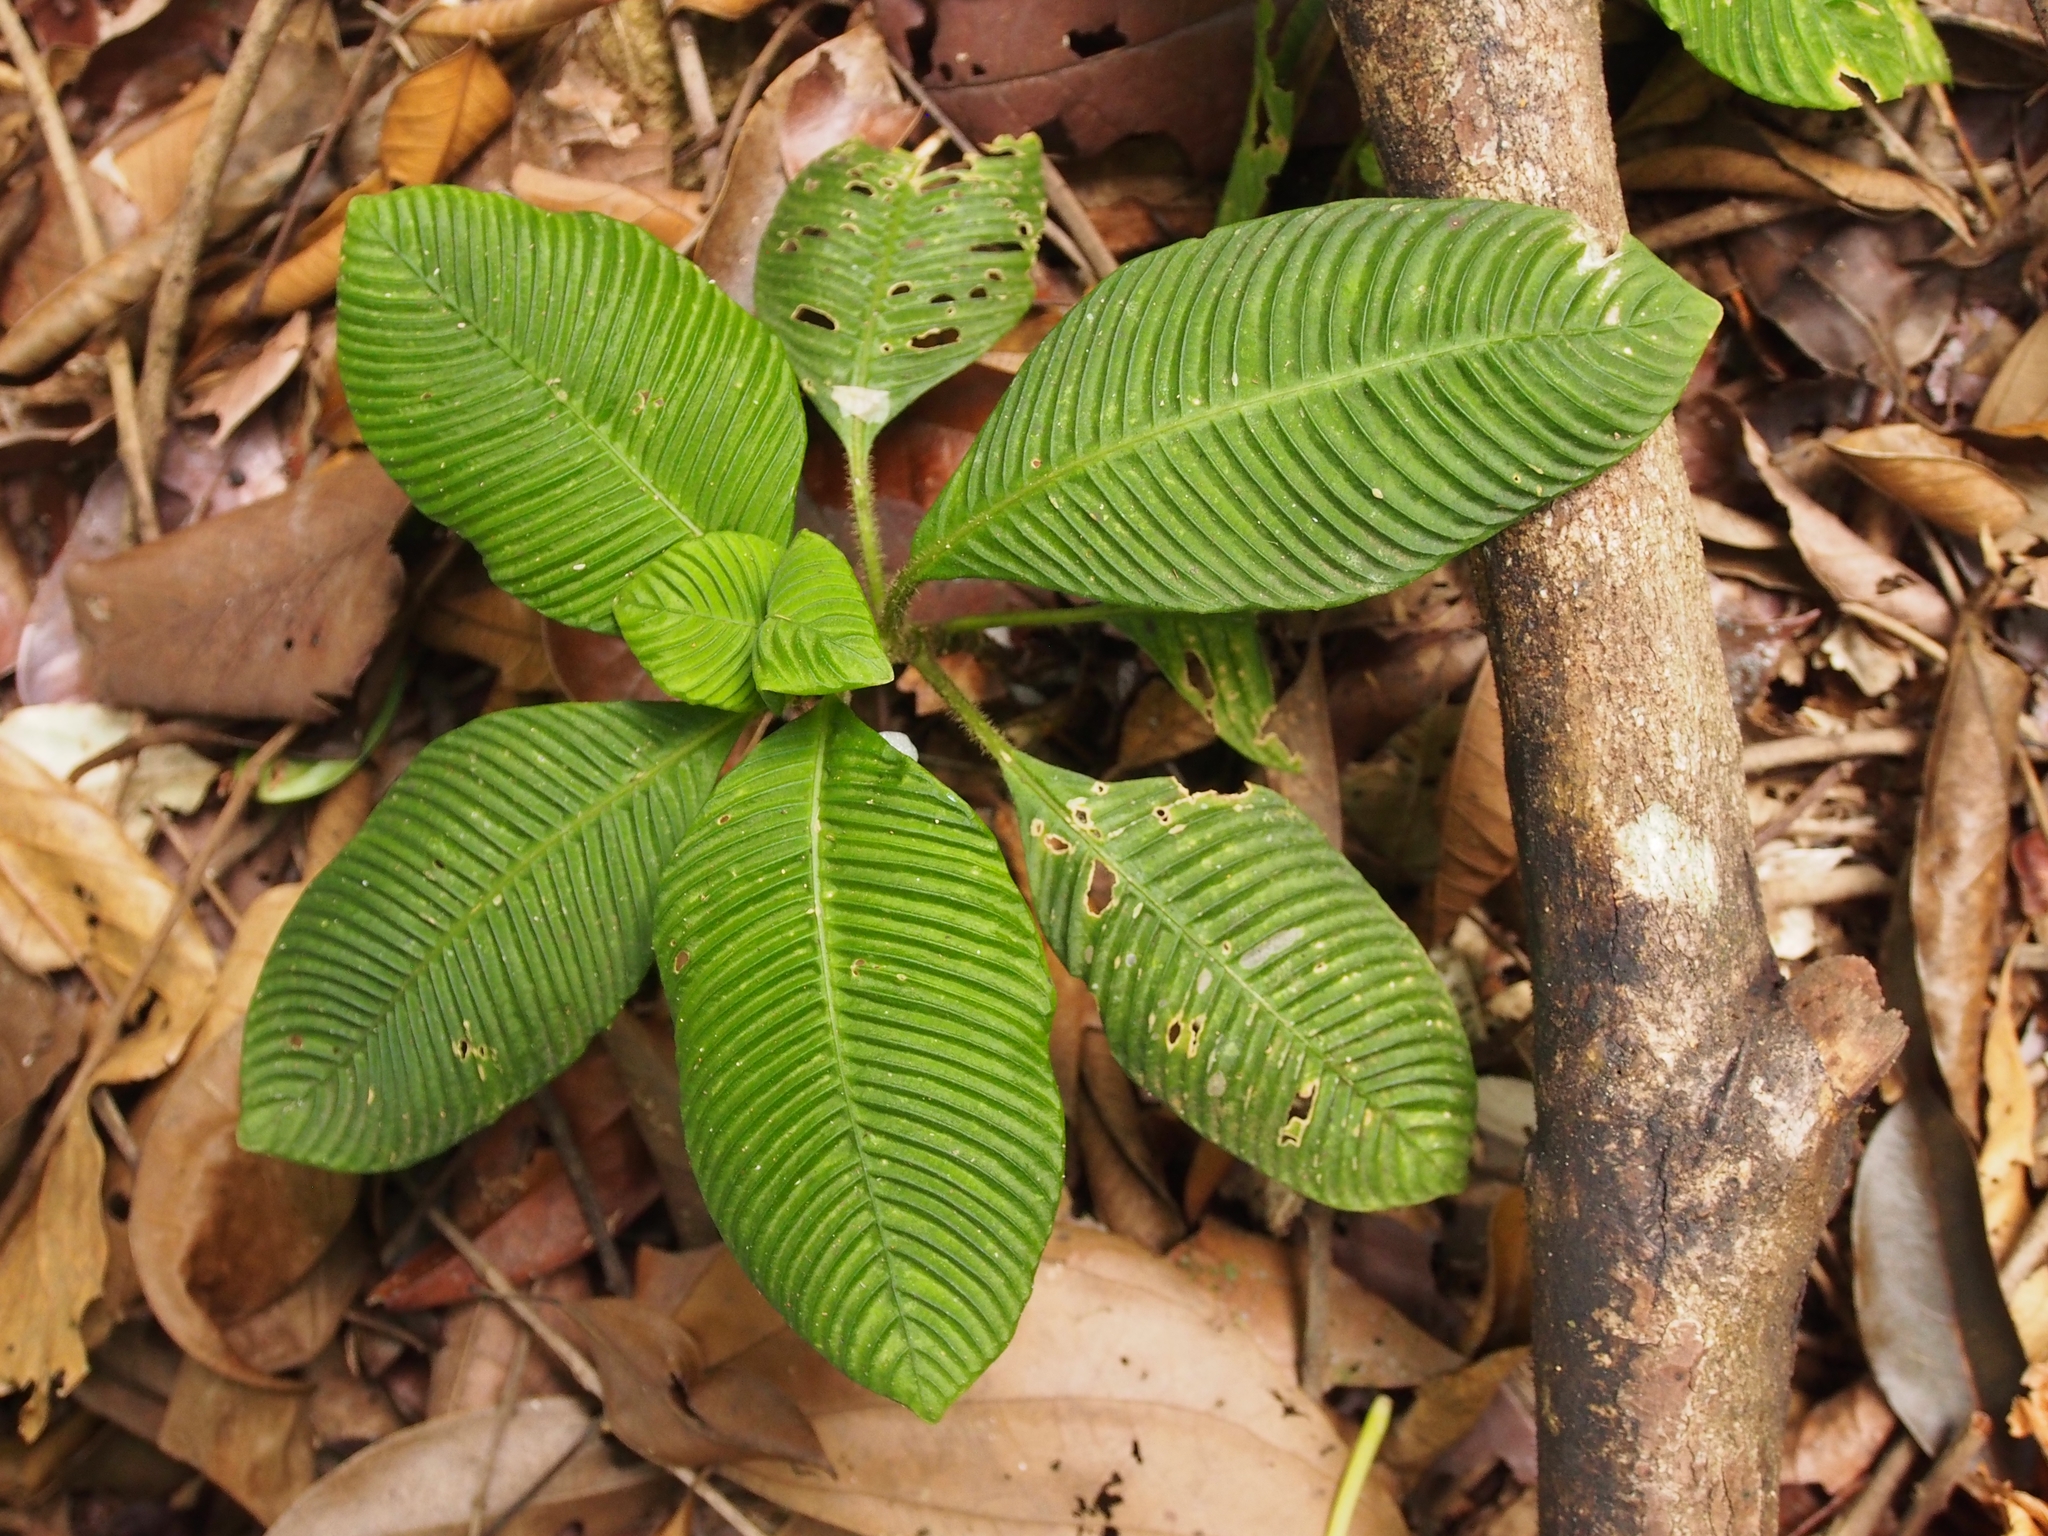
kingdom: Plantae
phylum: Tracheophyta
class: Magnoliopsida
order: Gentianales
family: Rubiaceae
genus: Notopleura
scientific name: Notopleura polyphlebia
